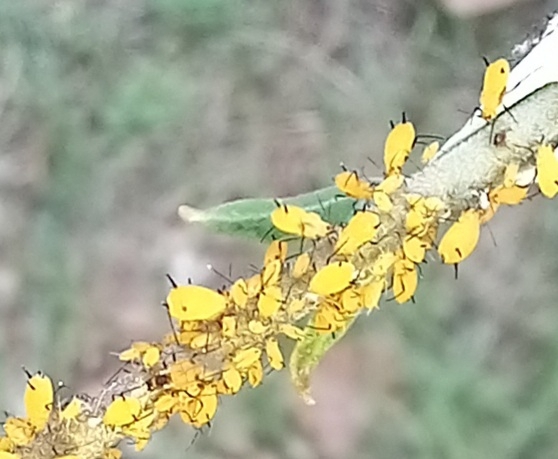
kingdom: Animalia
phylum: Arthropoda
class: Insecta
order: Hemiptera
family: Aphididae
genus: Aphis
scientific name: Aphis nerii
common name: Oleander aphid
